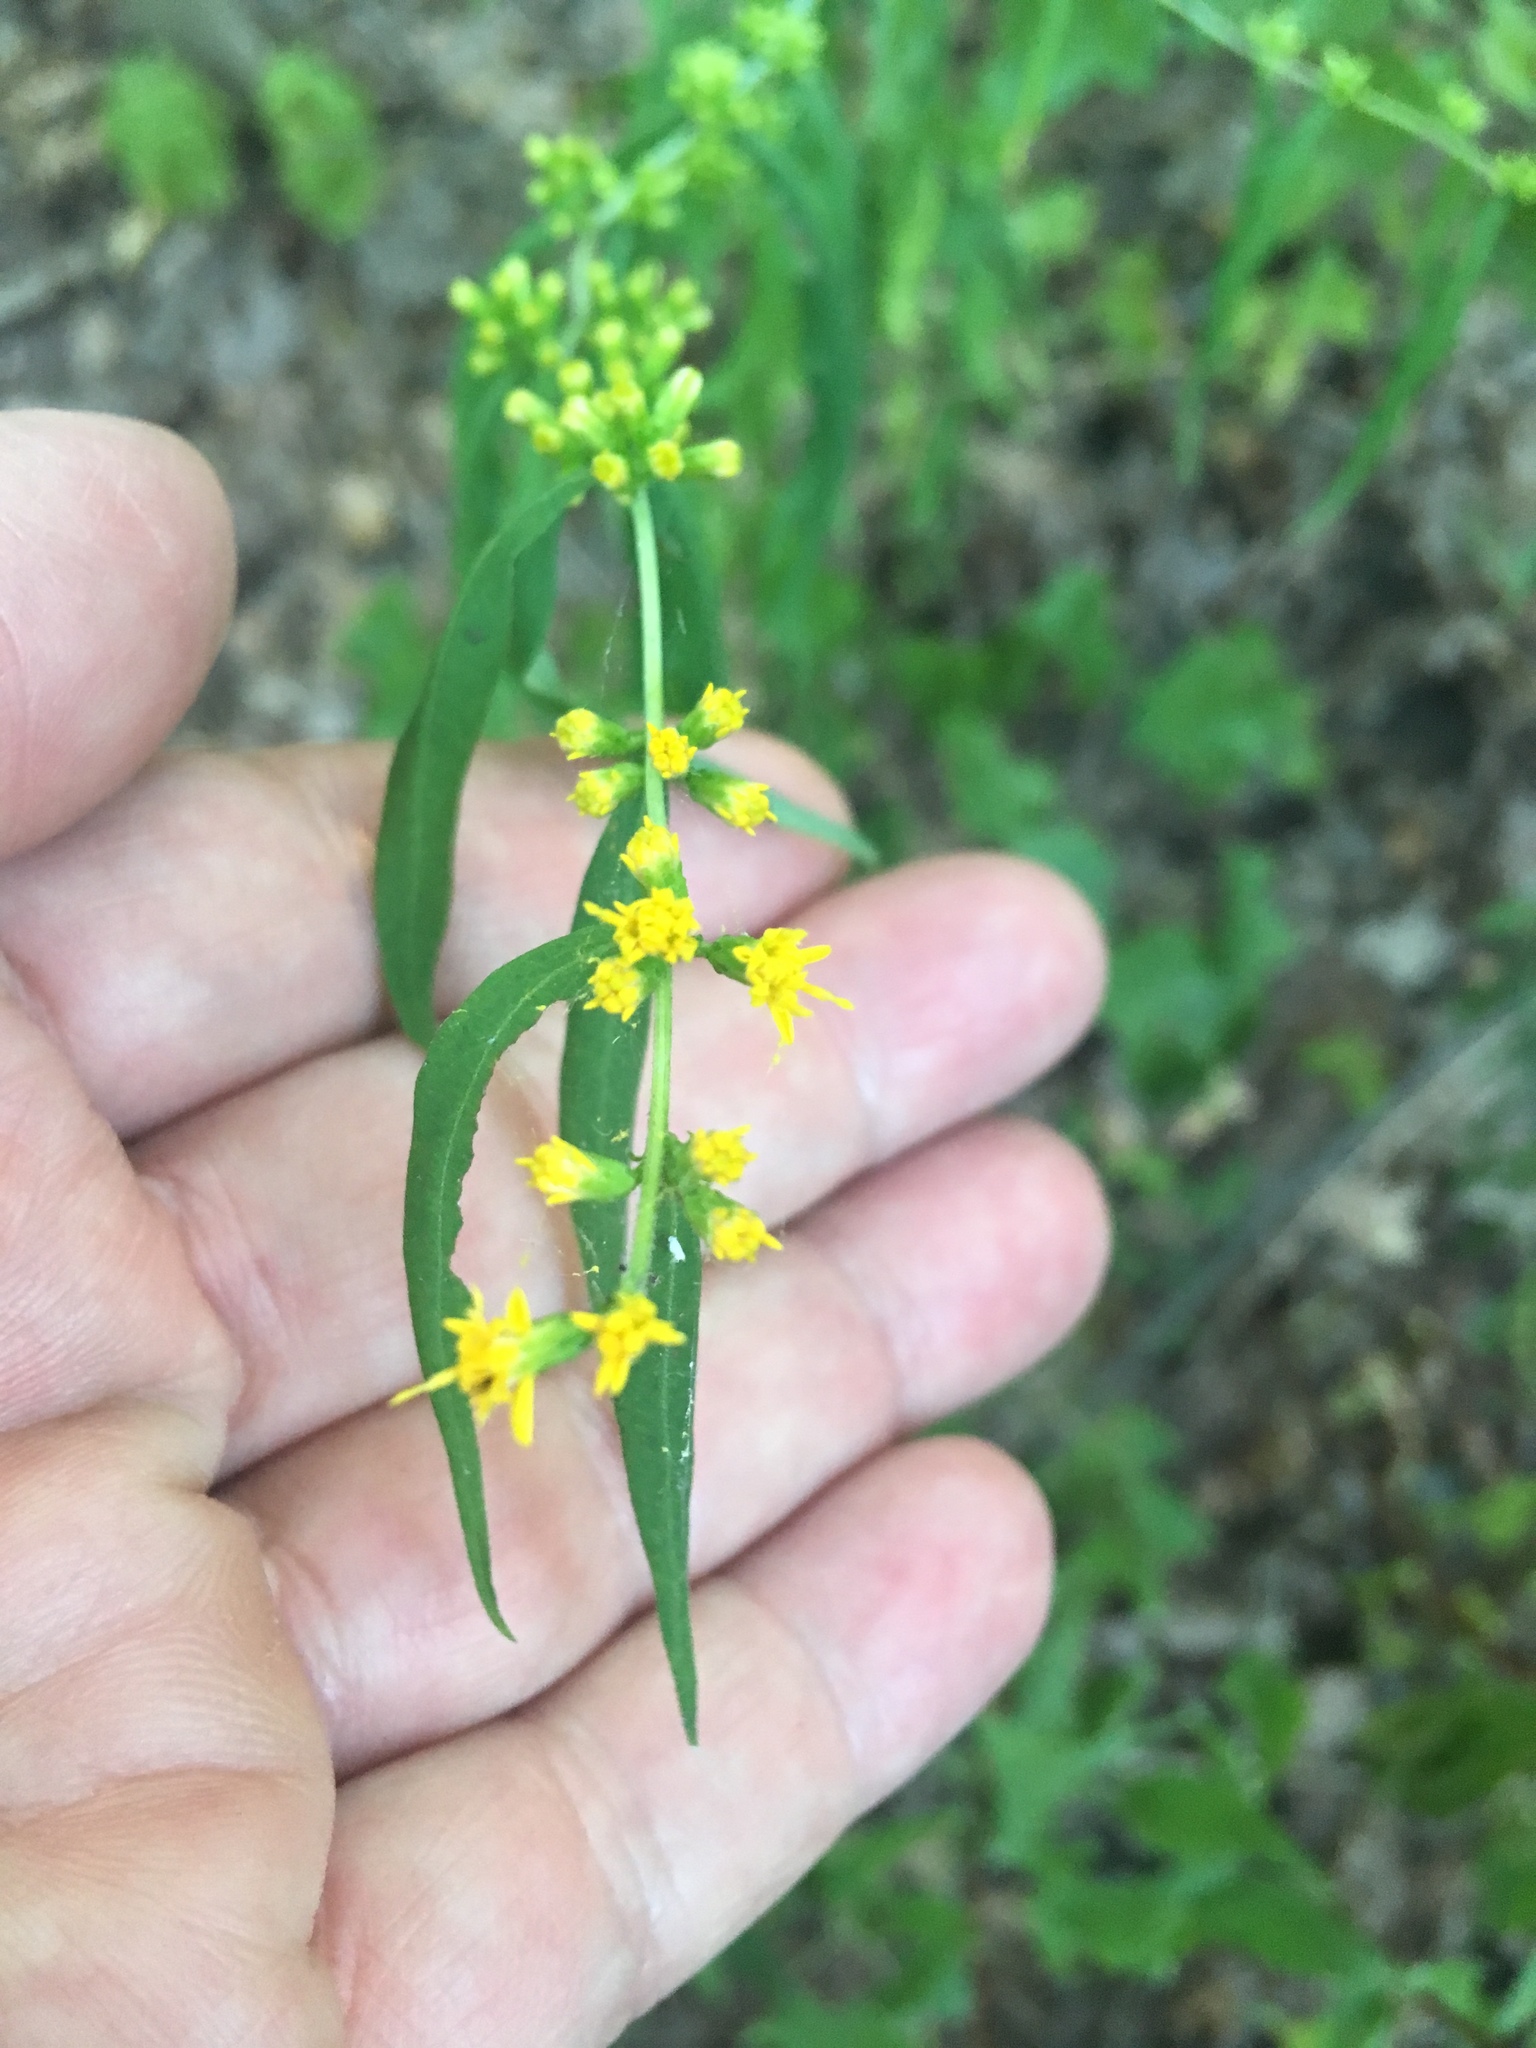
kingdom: Plantae
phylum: Tracheophyta
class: Magnoliopsida
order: Asterales
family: Asteraceae
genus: Solidago
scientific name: Solidago caesia
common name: Woodland goldenrod
